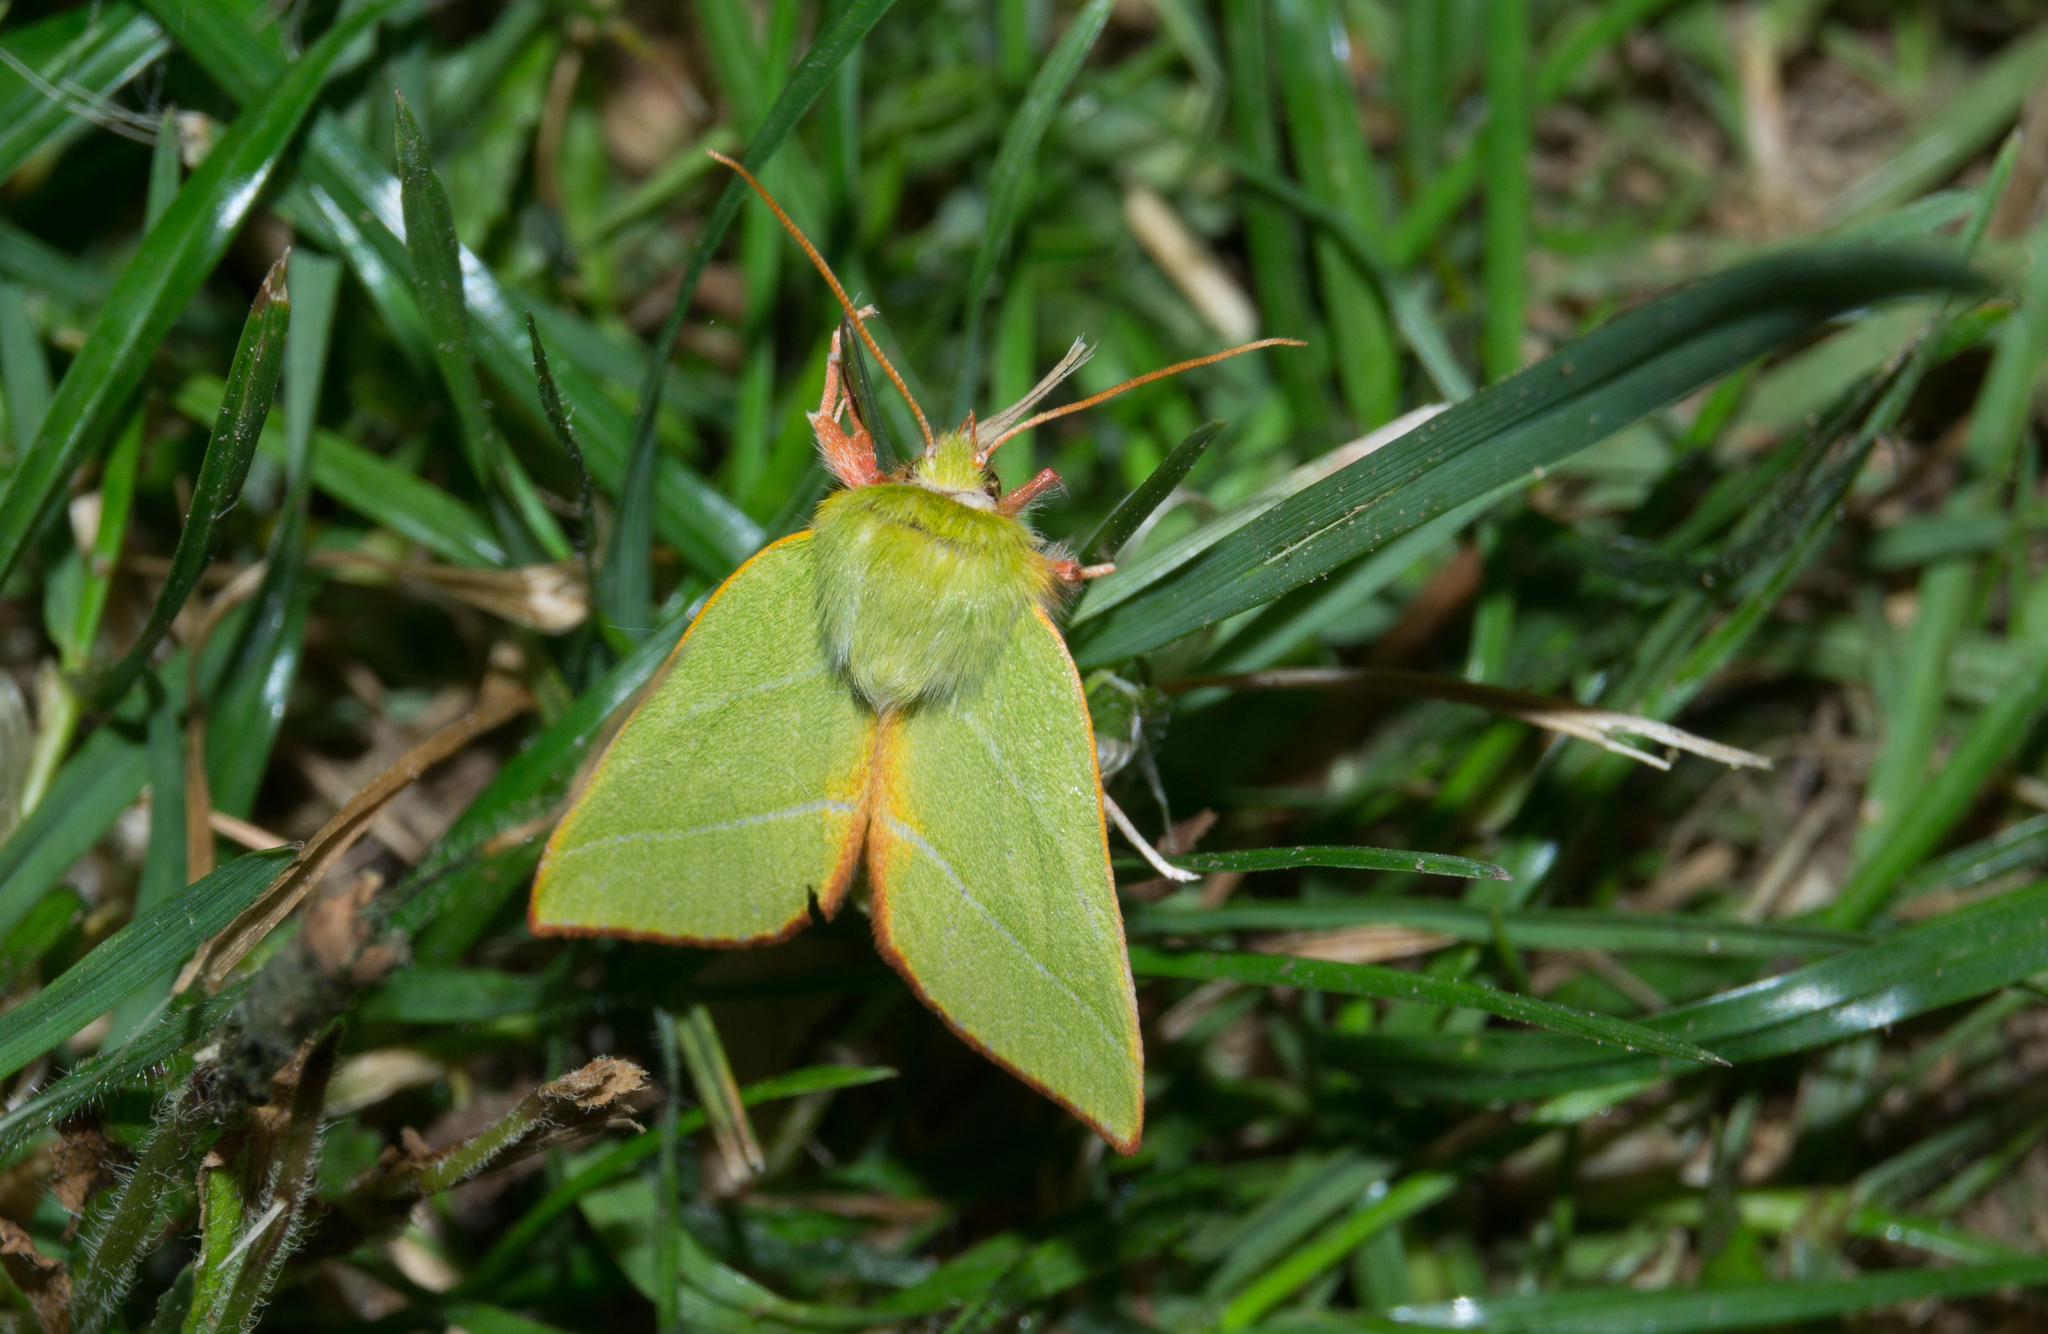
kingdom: Animalia
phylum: Arthropoda
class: Insecta
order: Lepidoptera
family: Nolidae
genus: Pseudoips
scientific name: Pseudoips prasinana
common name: Green silver-lines
